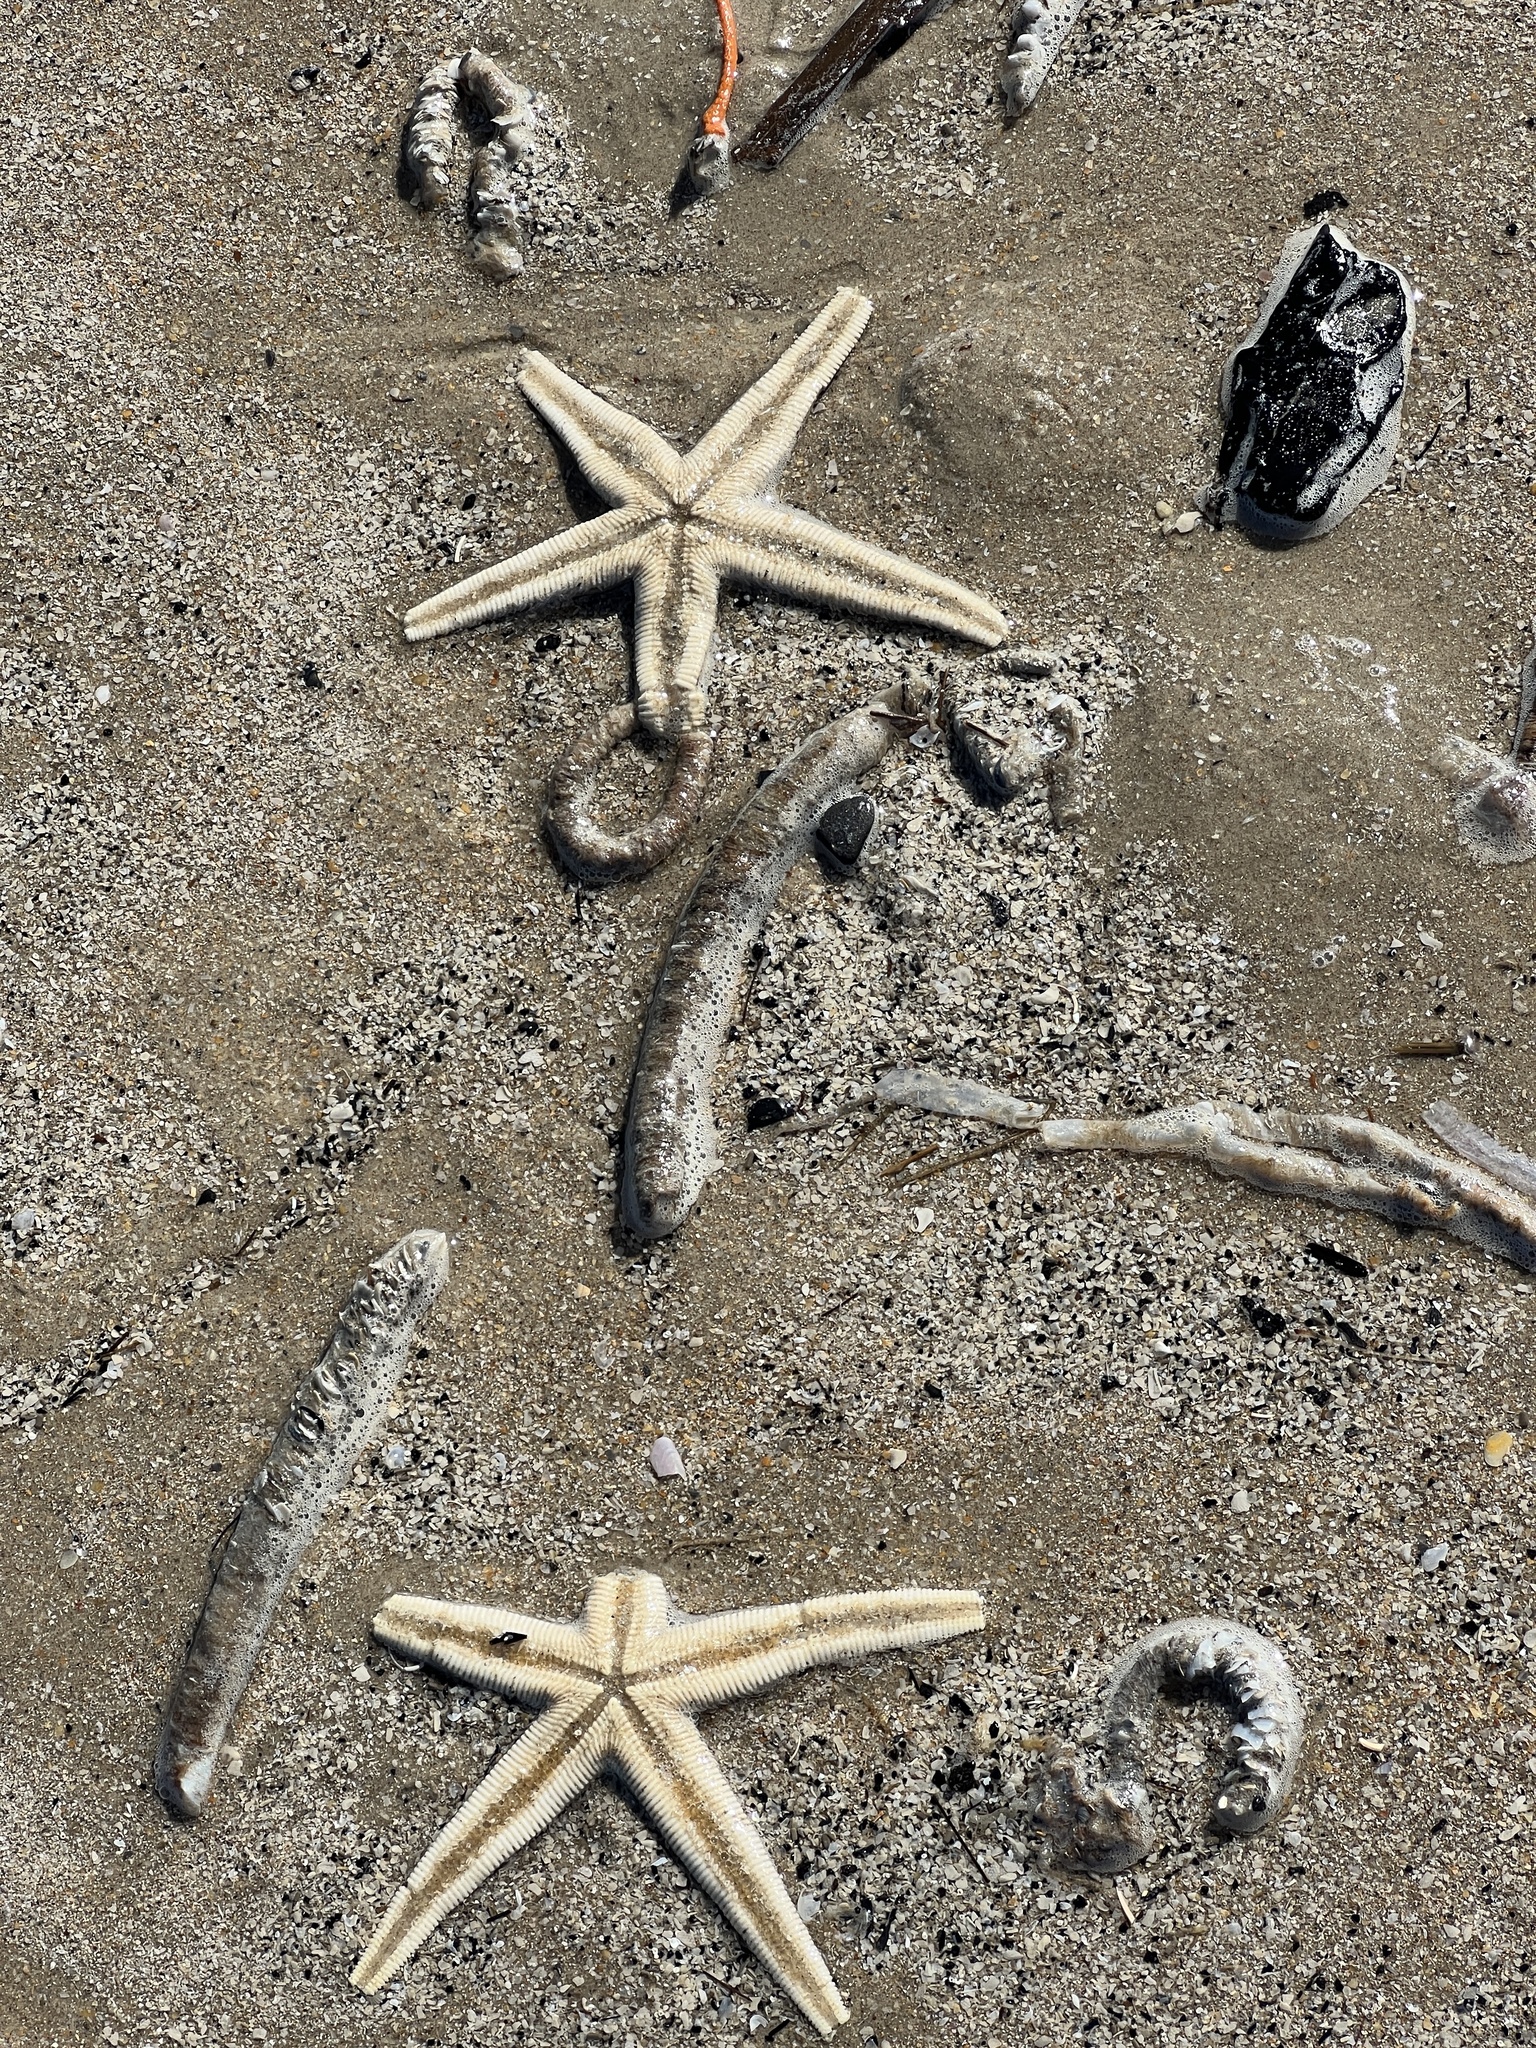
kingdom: Animalia
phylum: Echinodermata
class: Asteroidea
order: Paxillosida
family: Luidiidae
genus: Luidia
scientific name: Luidia clathrata
